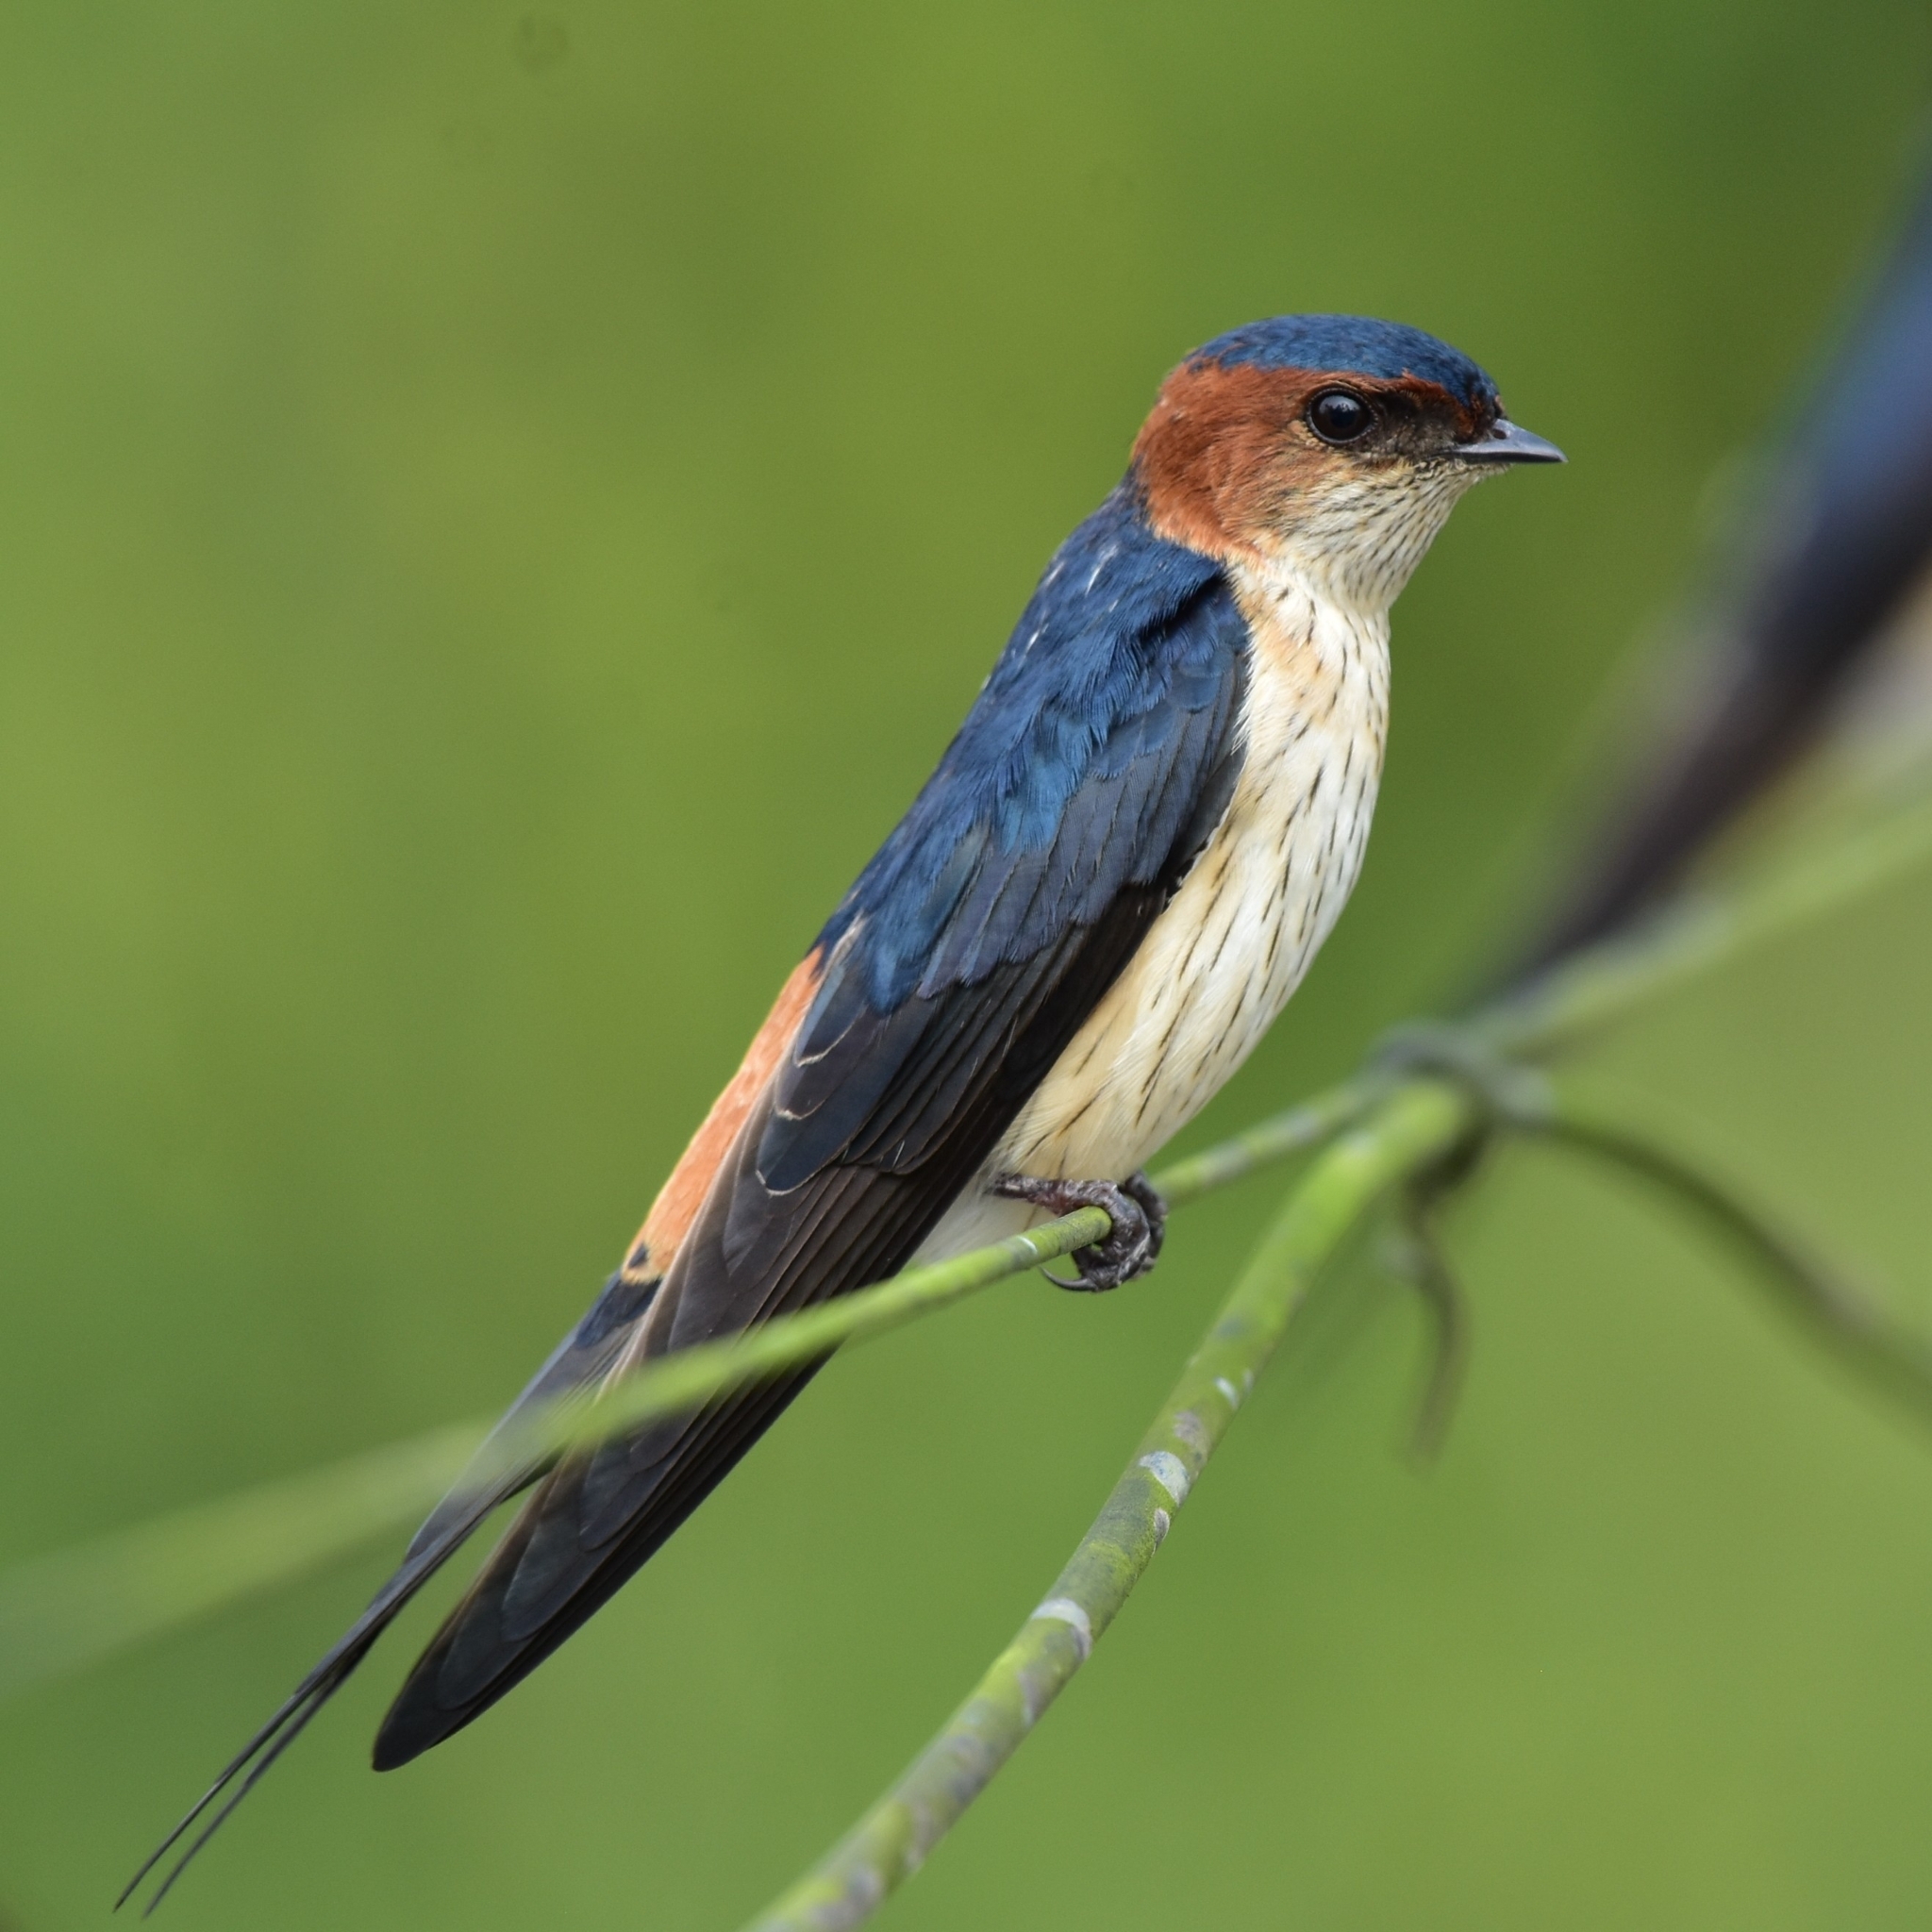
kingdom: Animalia
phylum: Chordata
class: Aves
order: Passeriformes
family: Hirundinidae
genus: Cecropis
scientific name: Cecropis daurica
